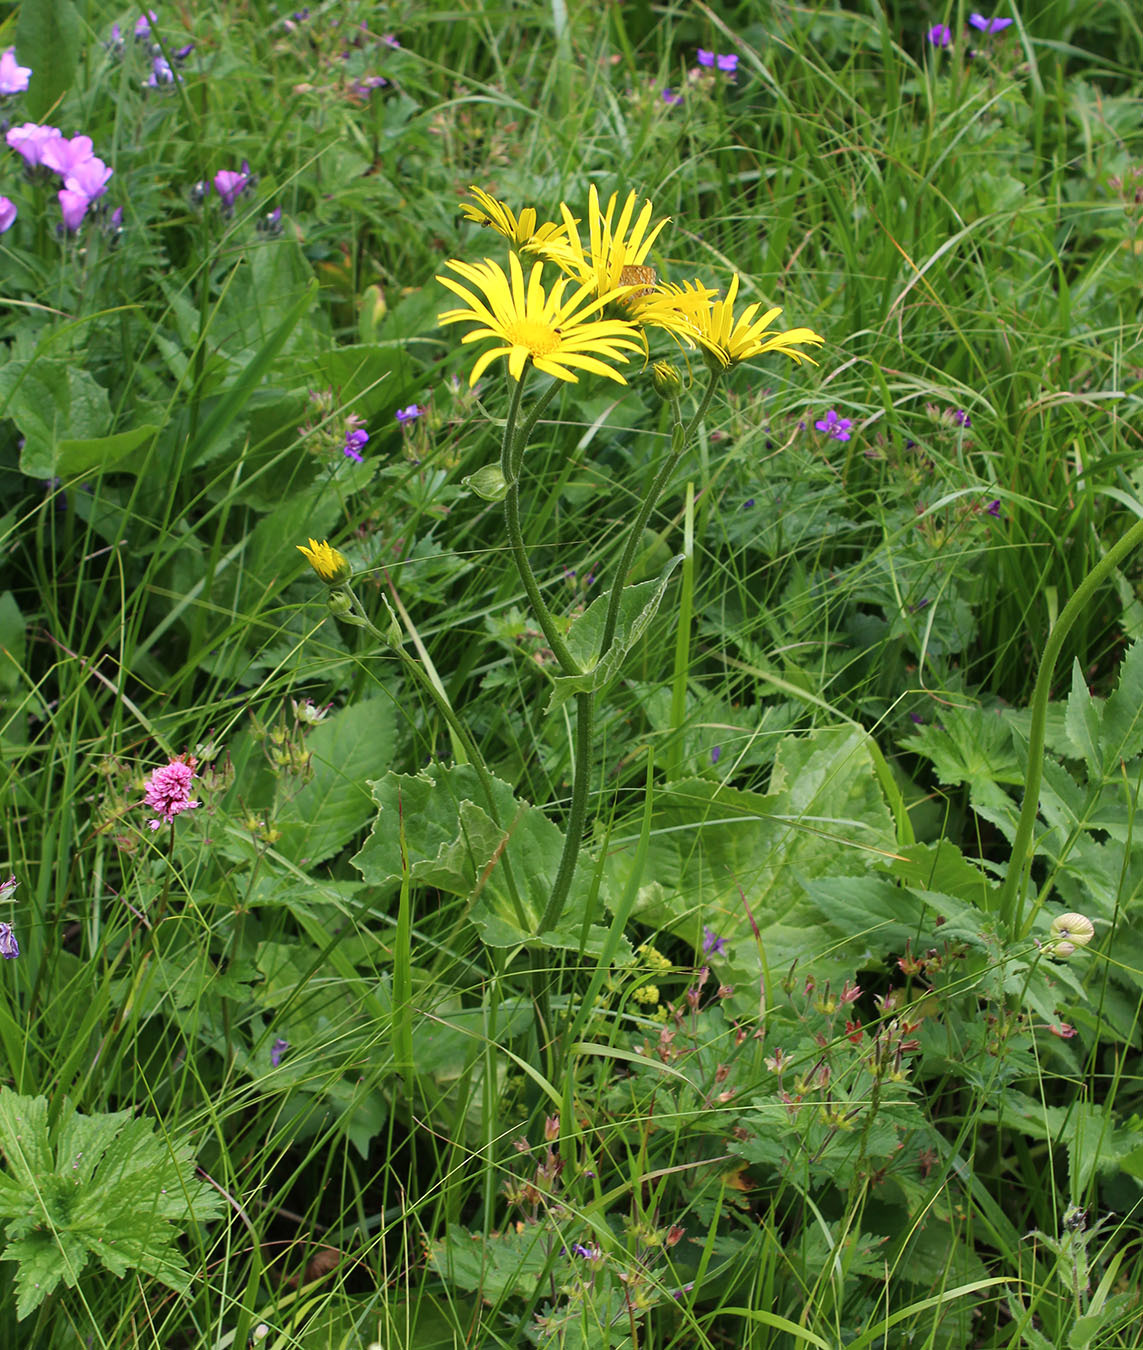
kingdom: Plantae
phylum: Tracheophyta
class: Magnoliopsida
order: Asterales
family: Asteraceae
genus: Doronicum
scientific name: Doronicum macrophyllum
